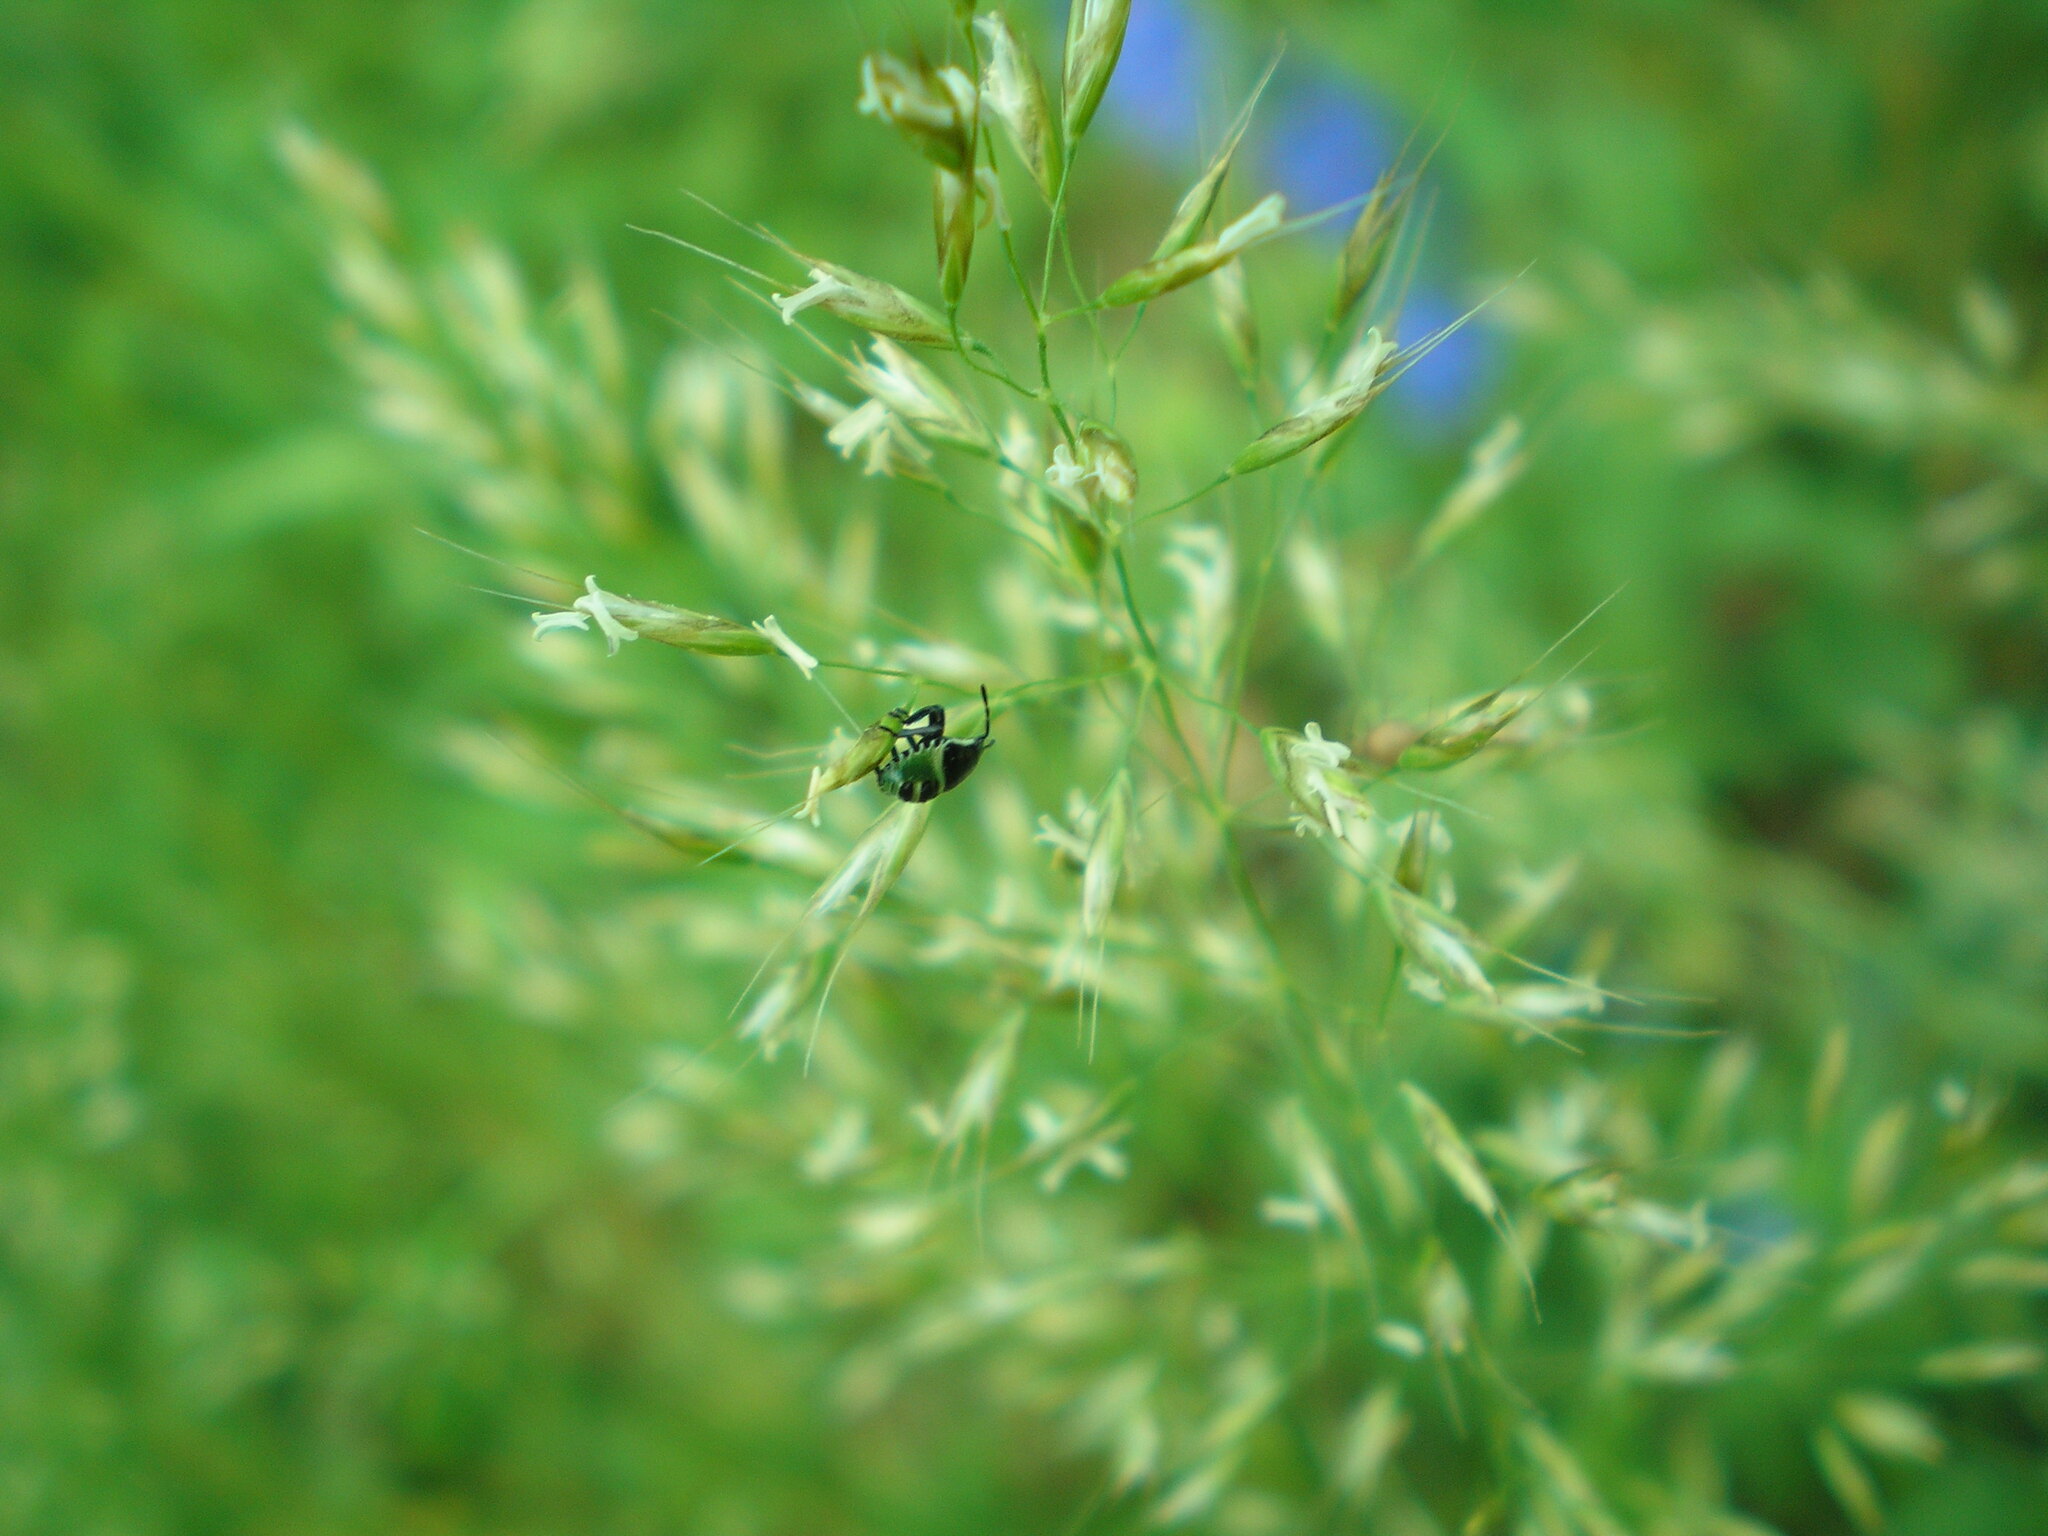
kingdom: Animalia
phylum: Arthropoda
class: Insecta
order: Hemiptera
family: Pentatomidae
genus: Palomena
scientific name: Palomena prasina
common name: Green shieldbug
